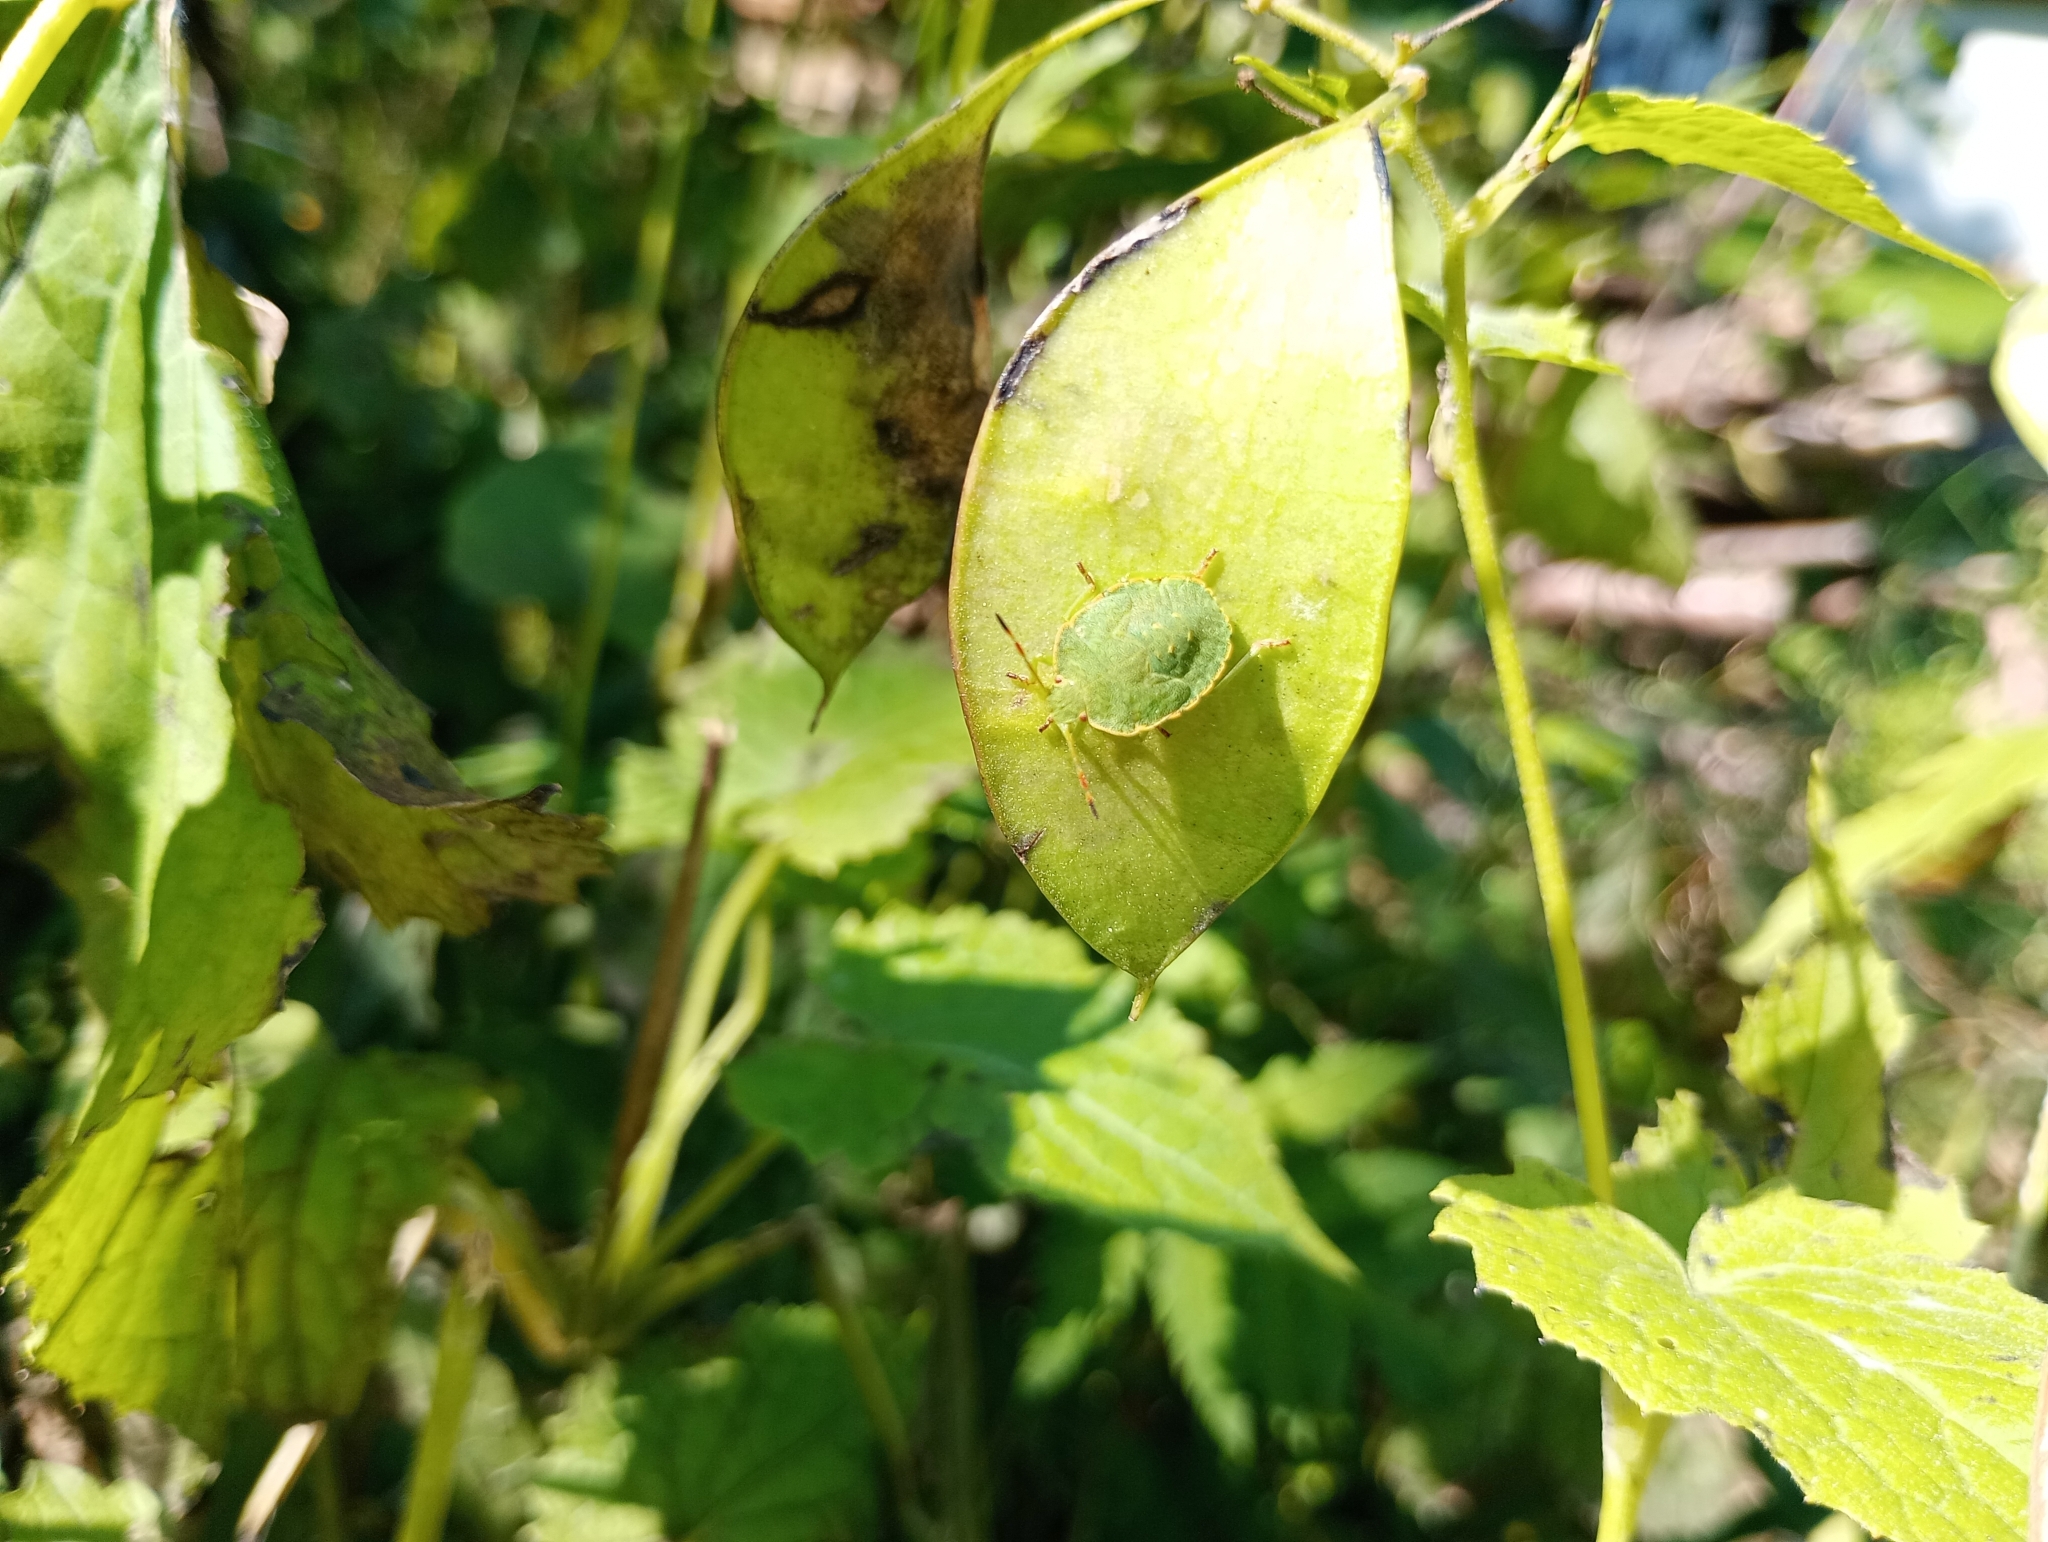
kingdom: Animalia
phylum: Arthropoda
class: Insecta
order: Hemiptera
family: Pentatomidae
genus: Palomena
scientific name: Palomena prasina
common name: Green shieldbug
